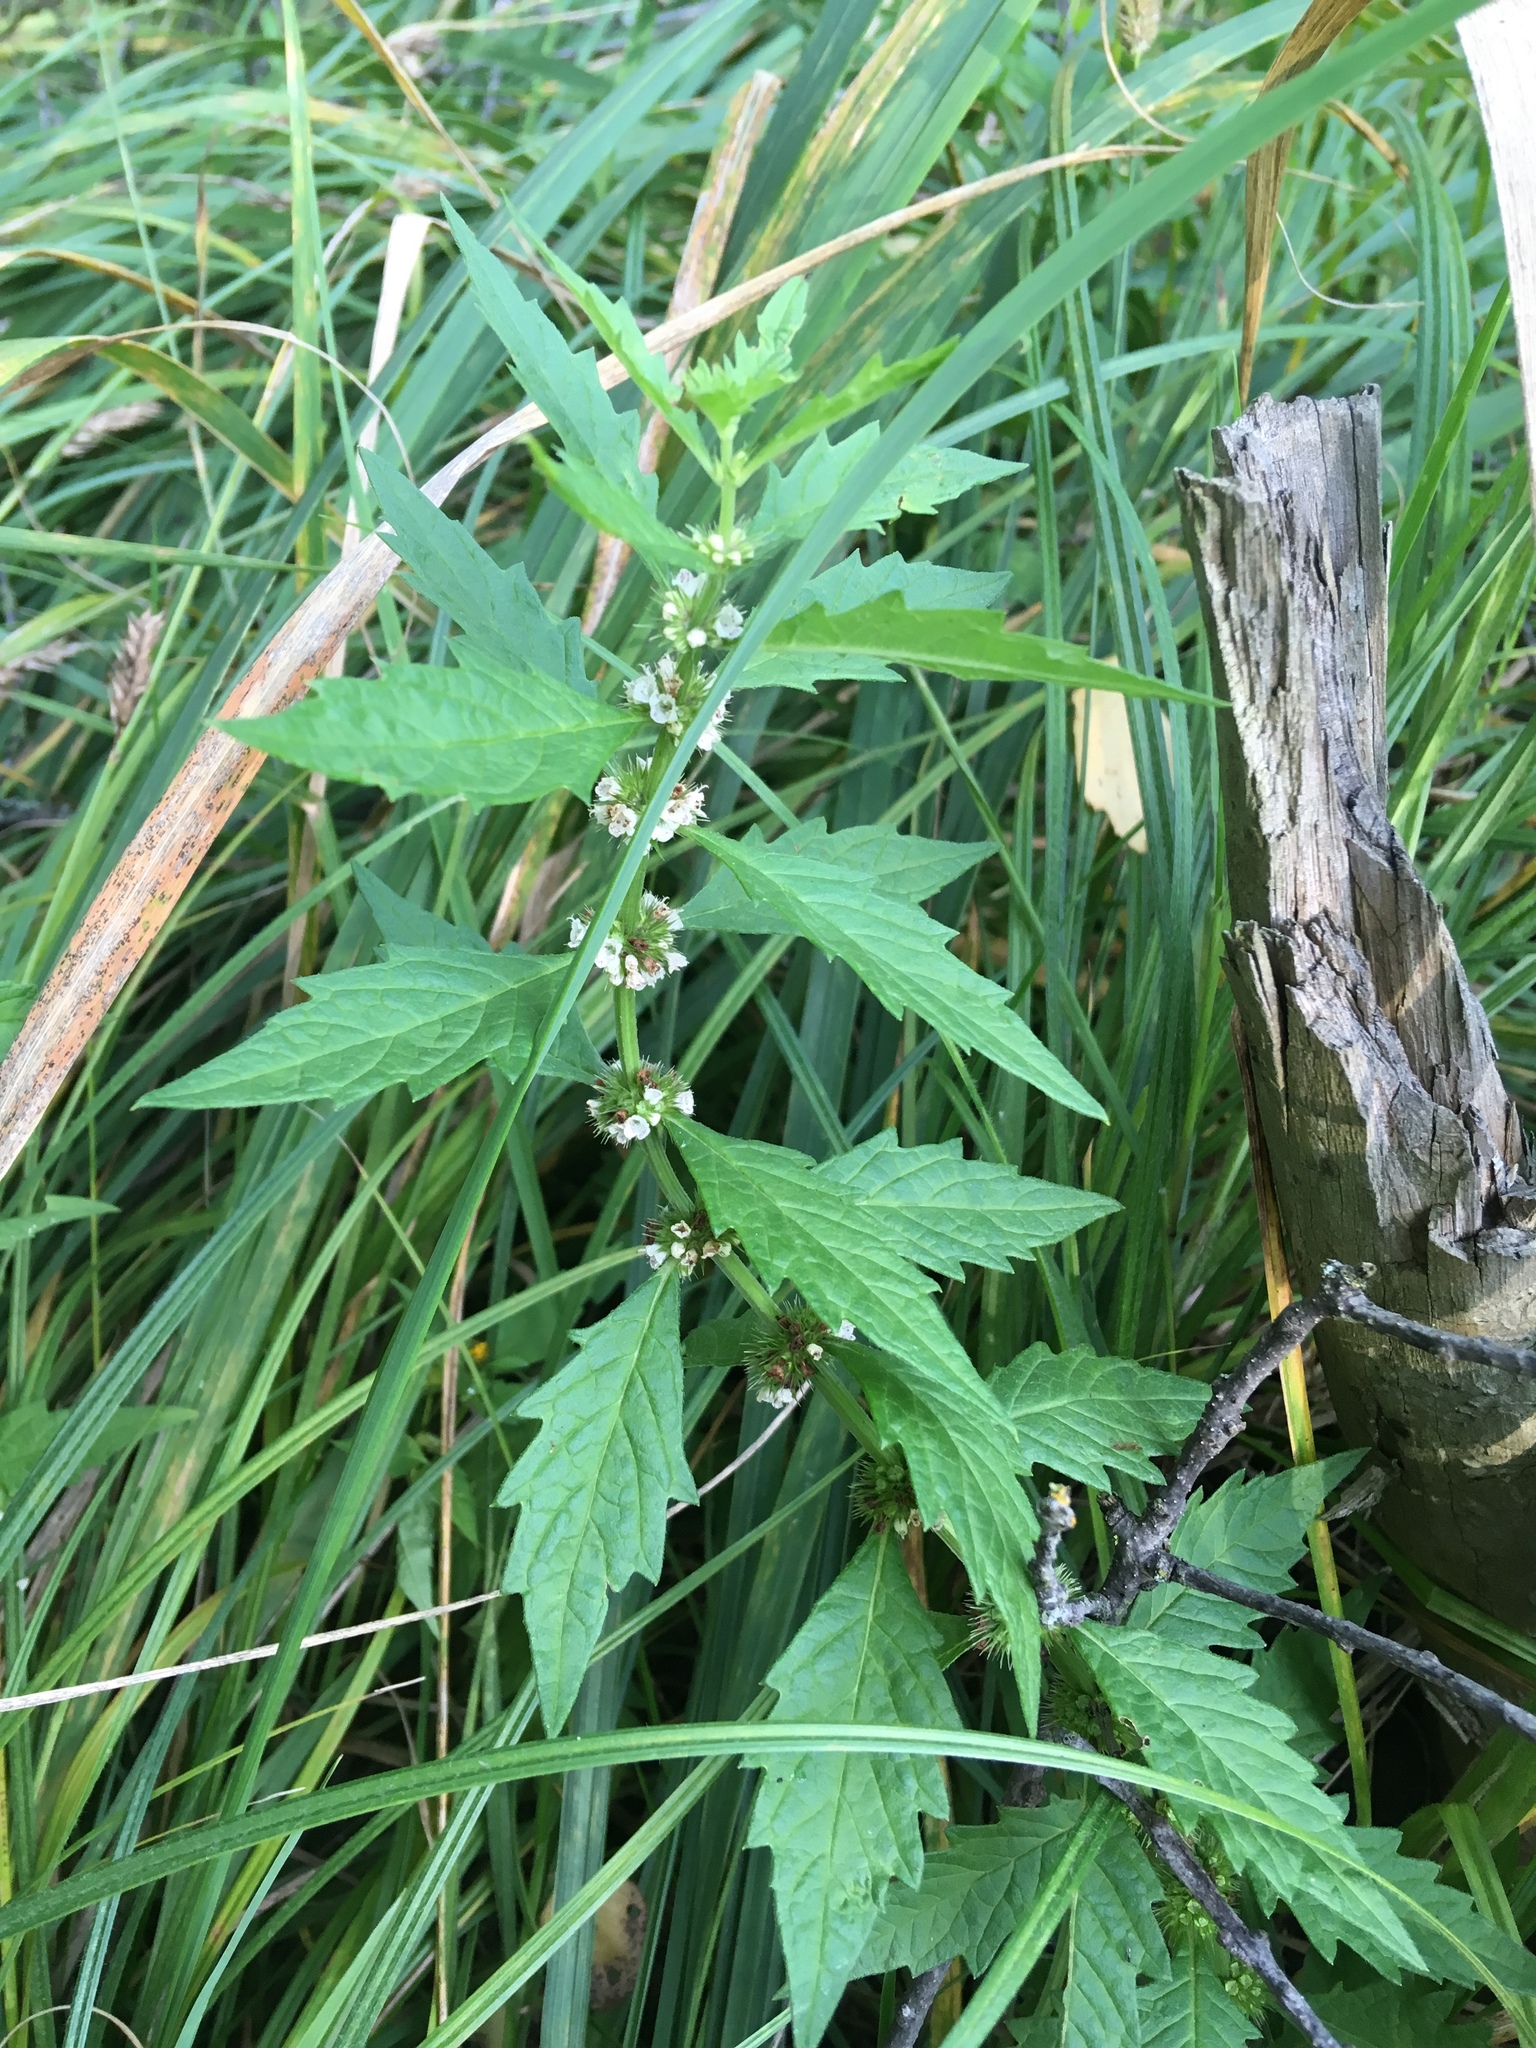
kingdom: Plantae
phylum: Tracheophyta
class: Magnoliopsida
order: Lamiales
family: Lamiaceae
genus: Lycopus
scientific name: Lycopus europaeus
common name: European bugleweed
